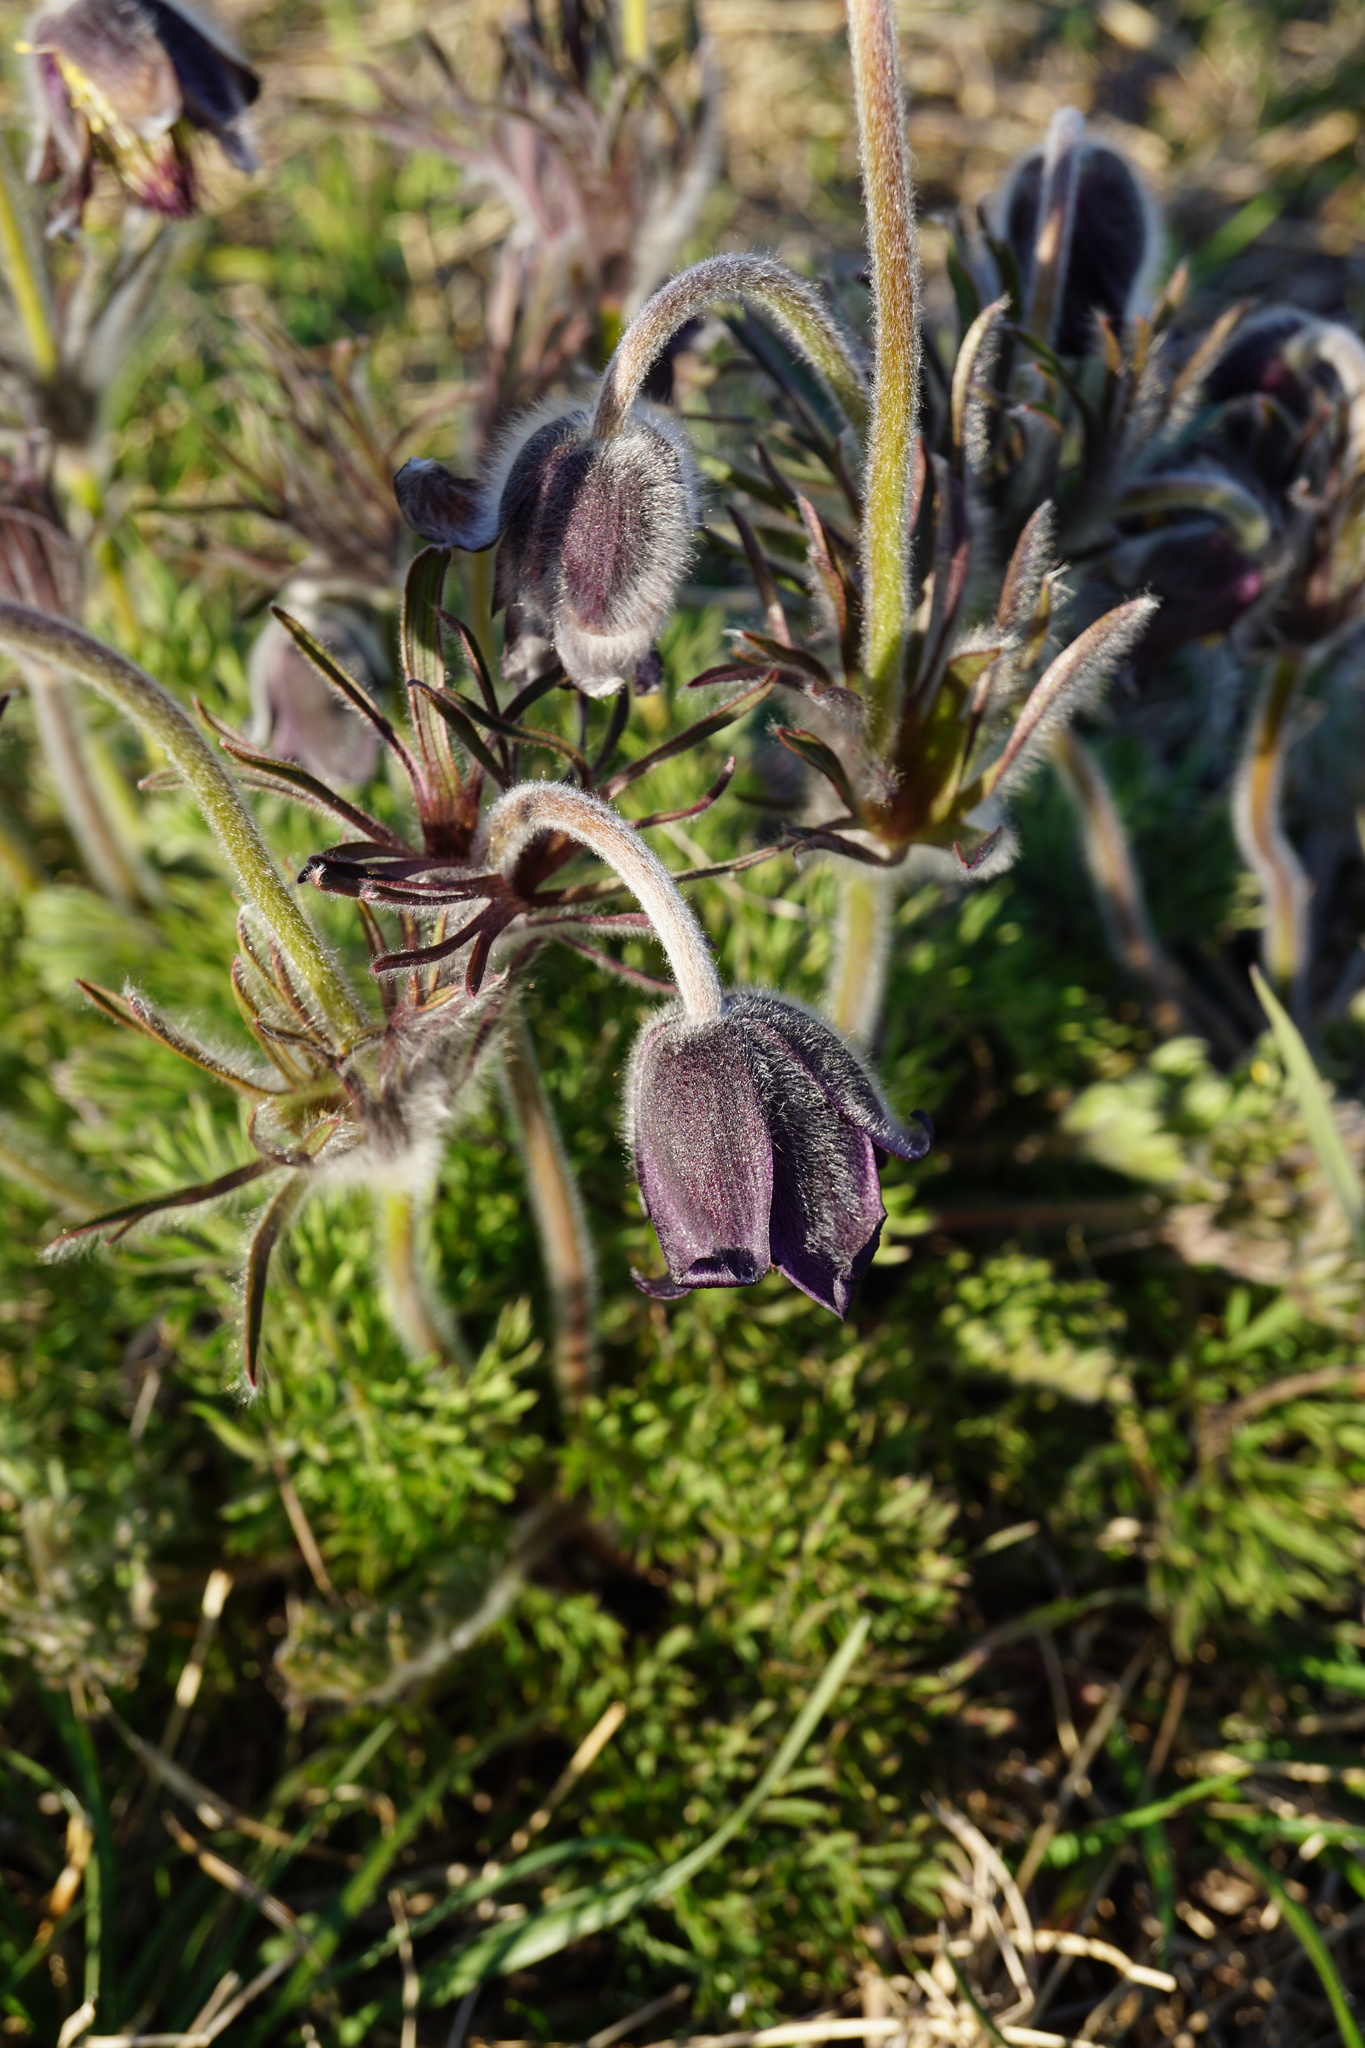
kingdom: Plantae
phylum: Tracheophyta
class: Magnoliopsida
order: Ranunculales
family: Ranunculaceae
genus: Pulsatilla
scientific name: Pulsatilla pratensis
